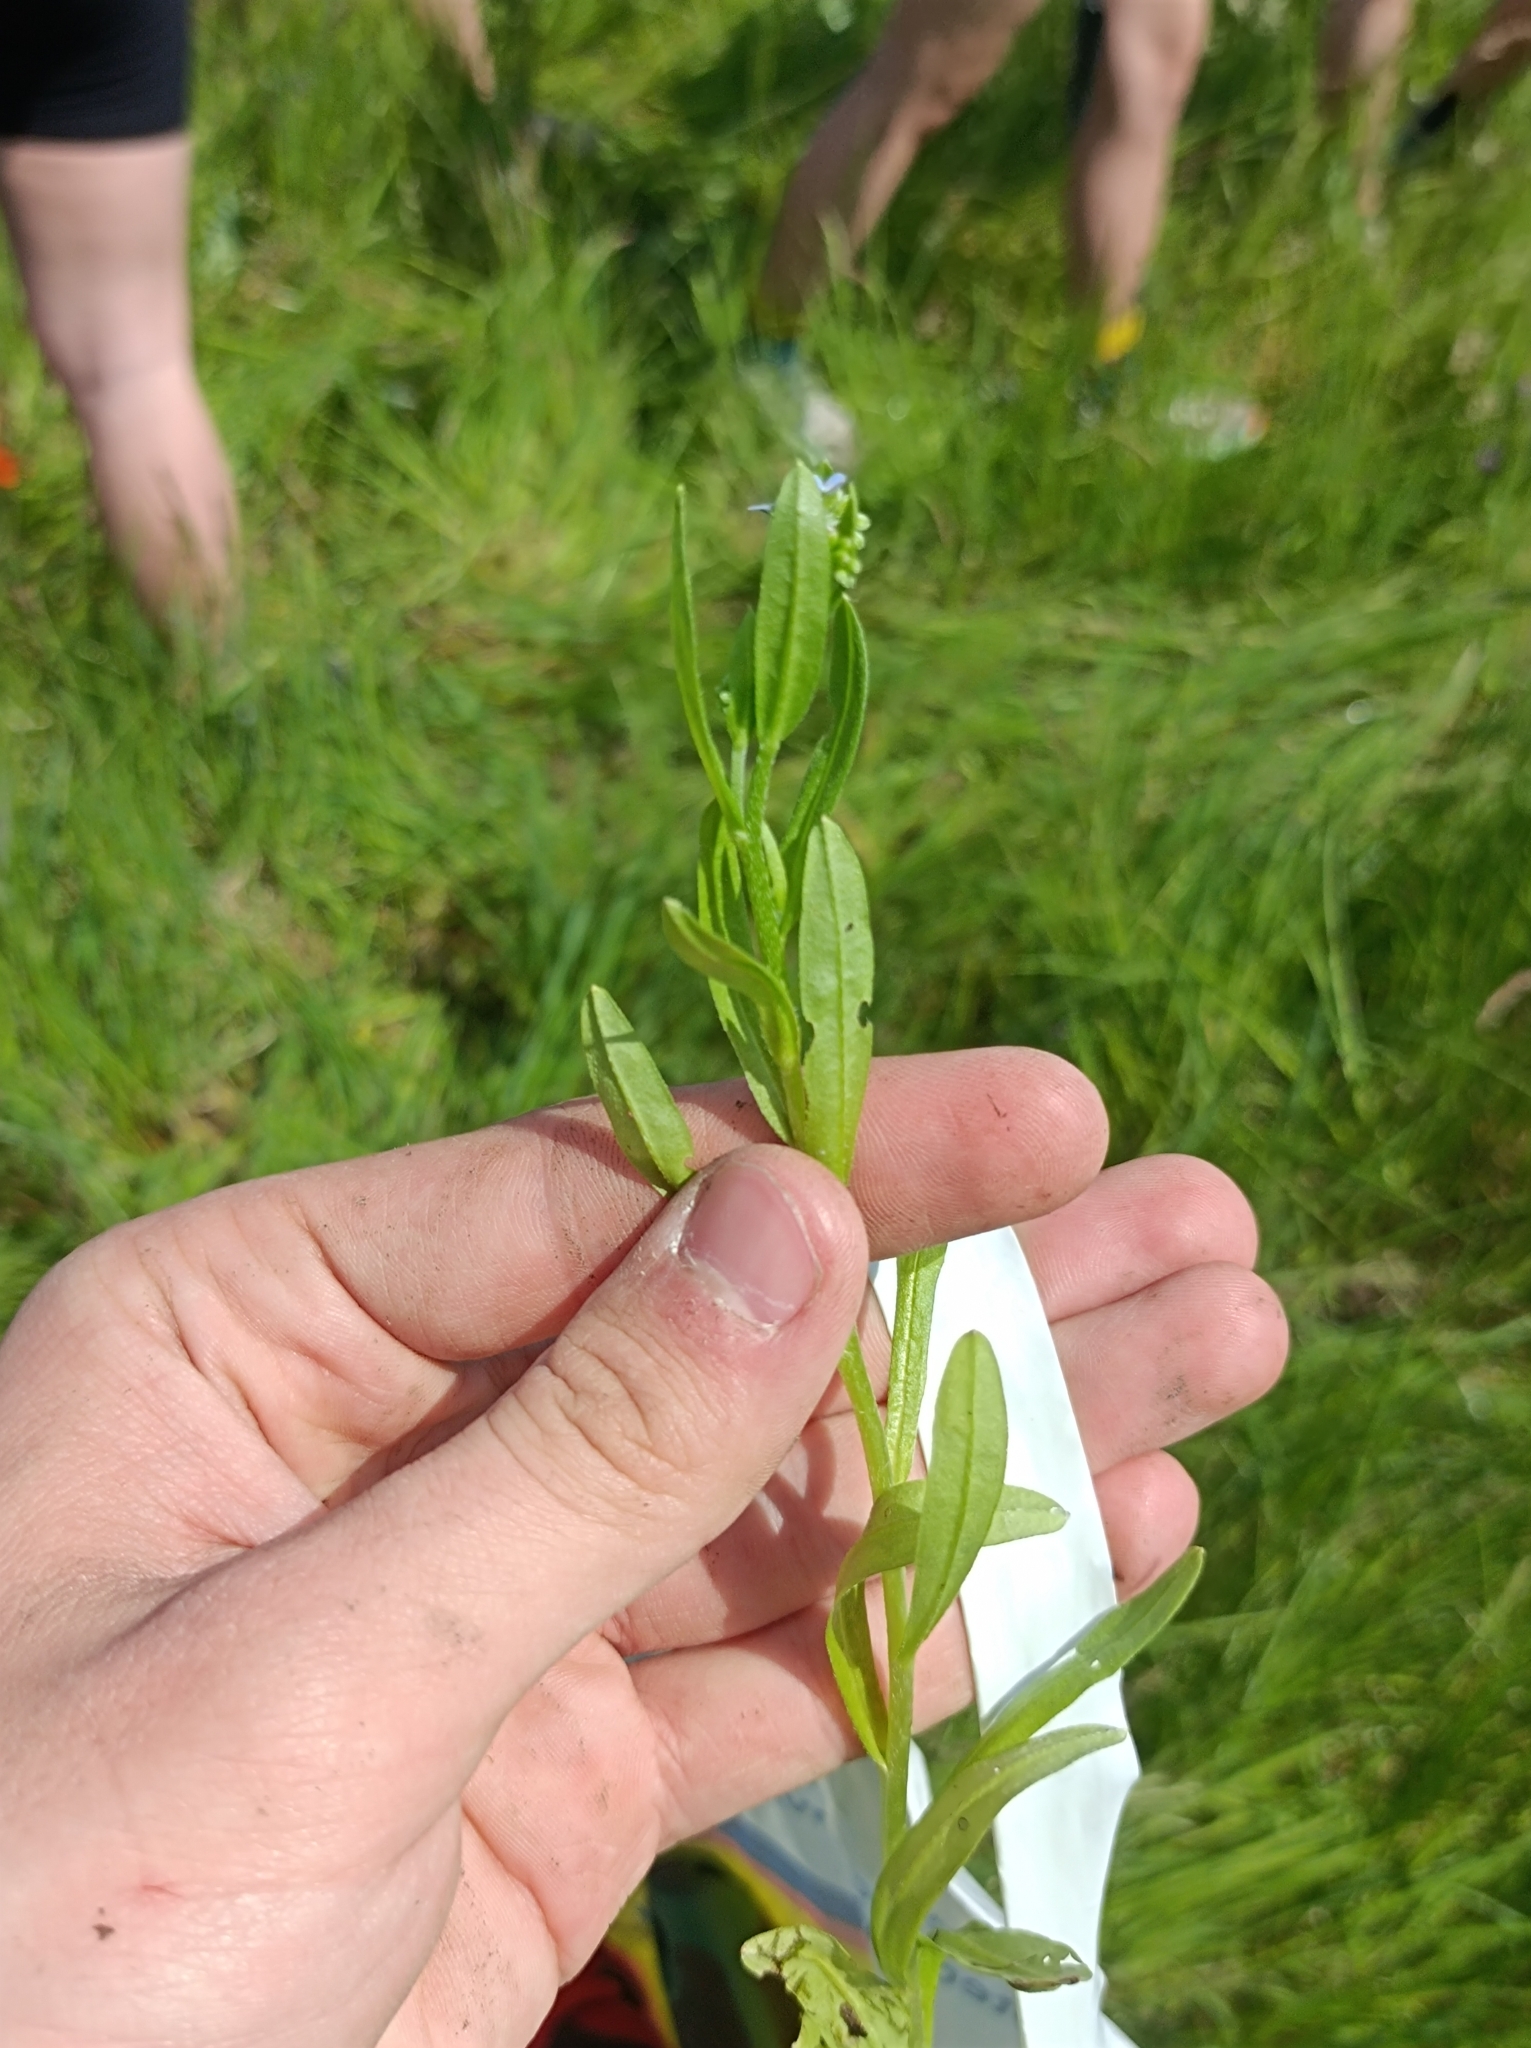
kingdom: Plantae
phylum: Tracheophyta
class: Magnoliopsida
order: Boraginales
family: Boraginaceae
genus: Myosotis
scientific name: Myosotis laxa
